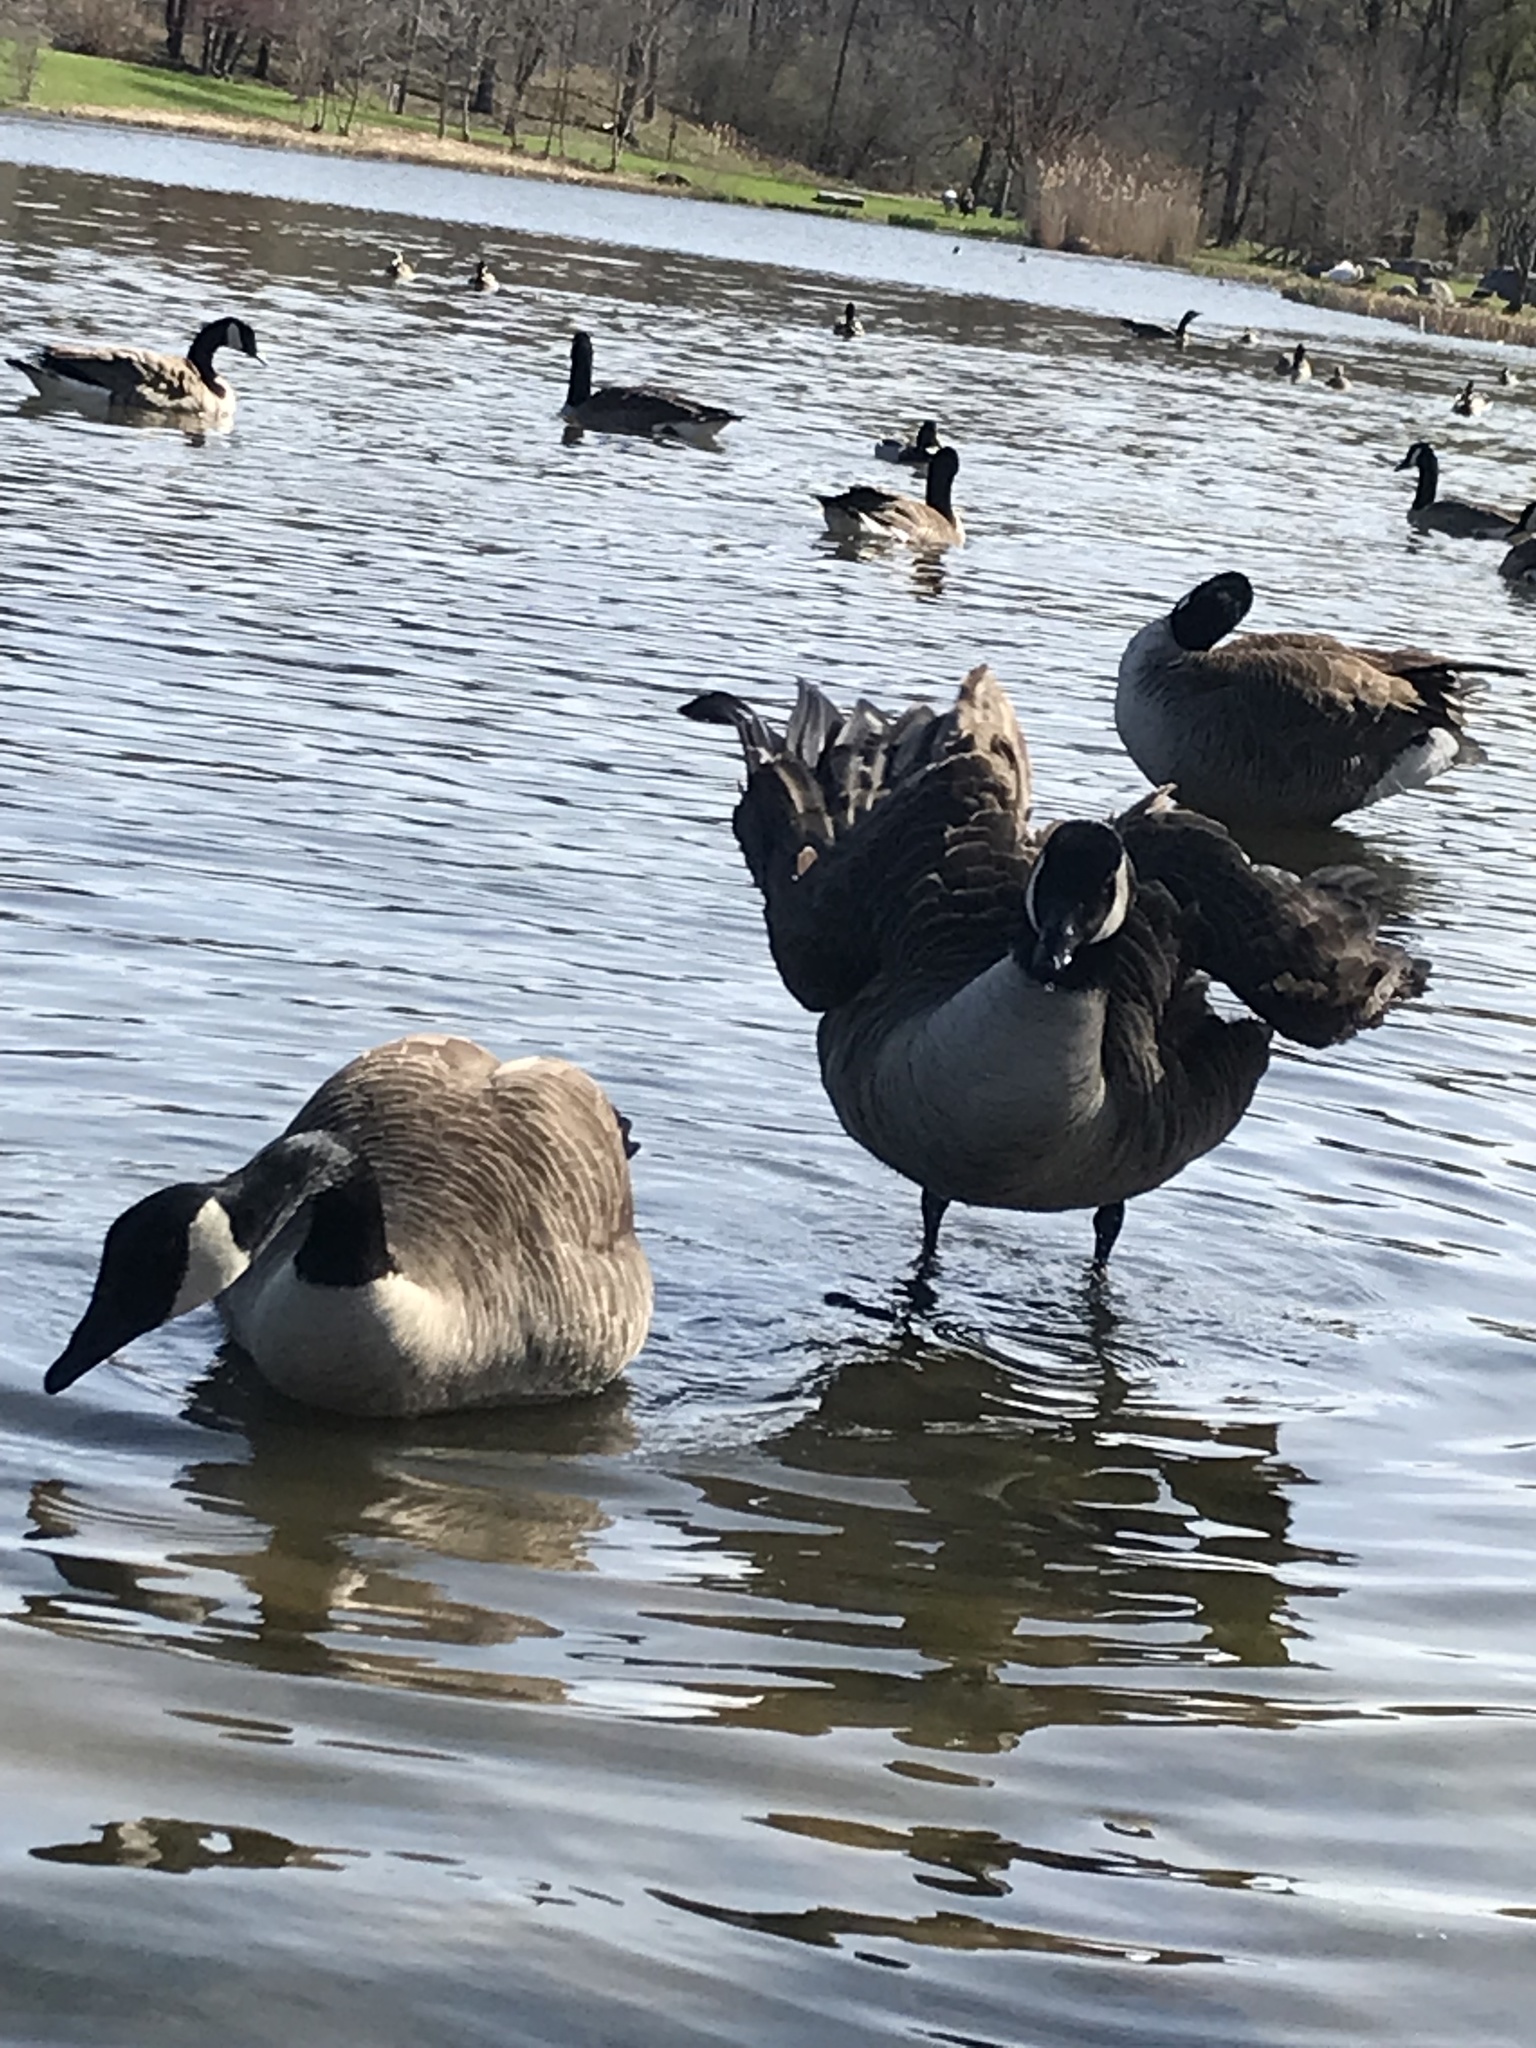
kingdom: Animalia
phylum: Chordata
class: Aves
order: Anseriformes
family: Anatidae
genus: Branta
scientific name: Branta canadensis
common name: Canada goose
